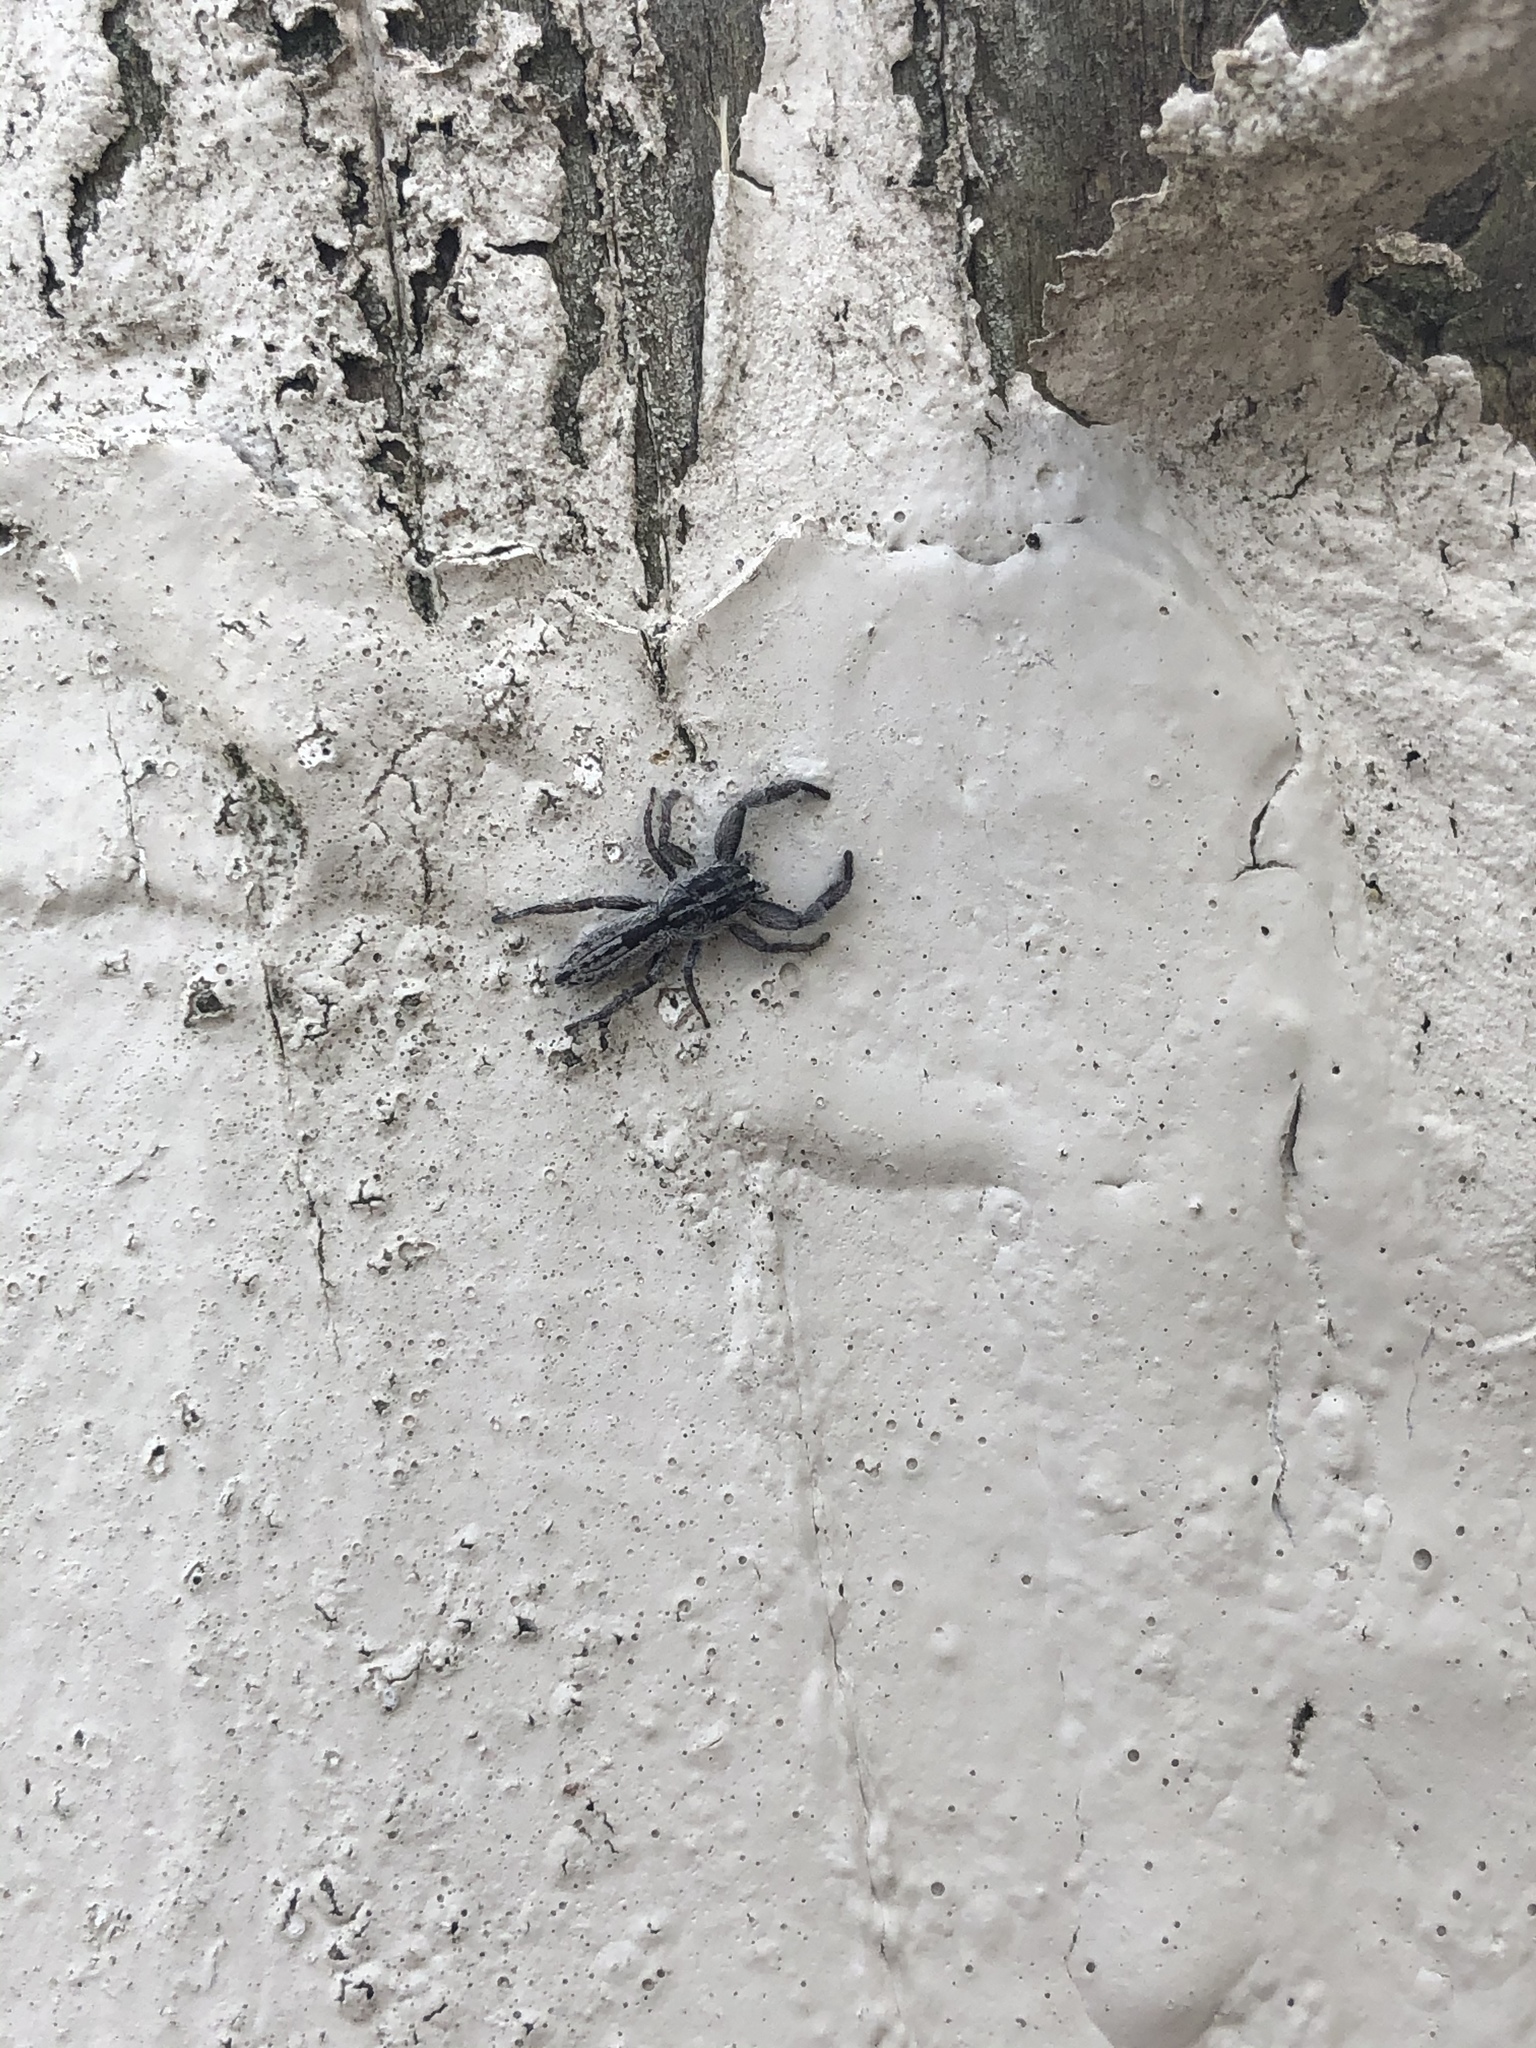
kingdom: Animalia
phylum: Arthropoda
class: Arachnida
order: Araneae
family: Salticidae
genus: Holoplatys
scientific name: Holoplatys apressus
